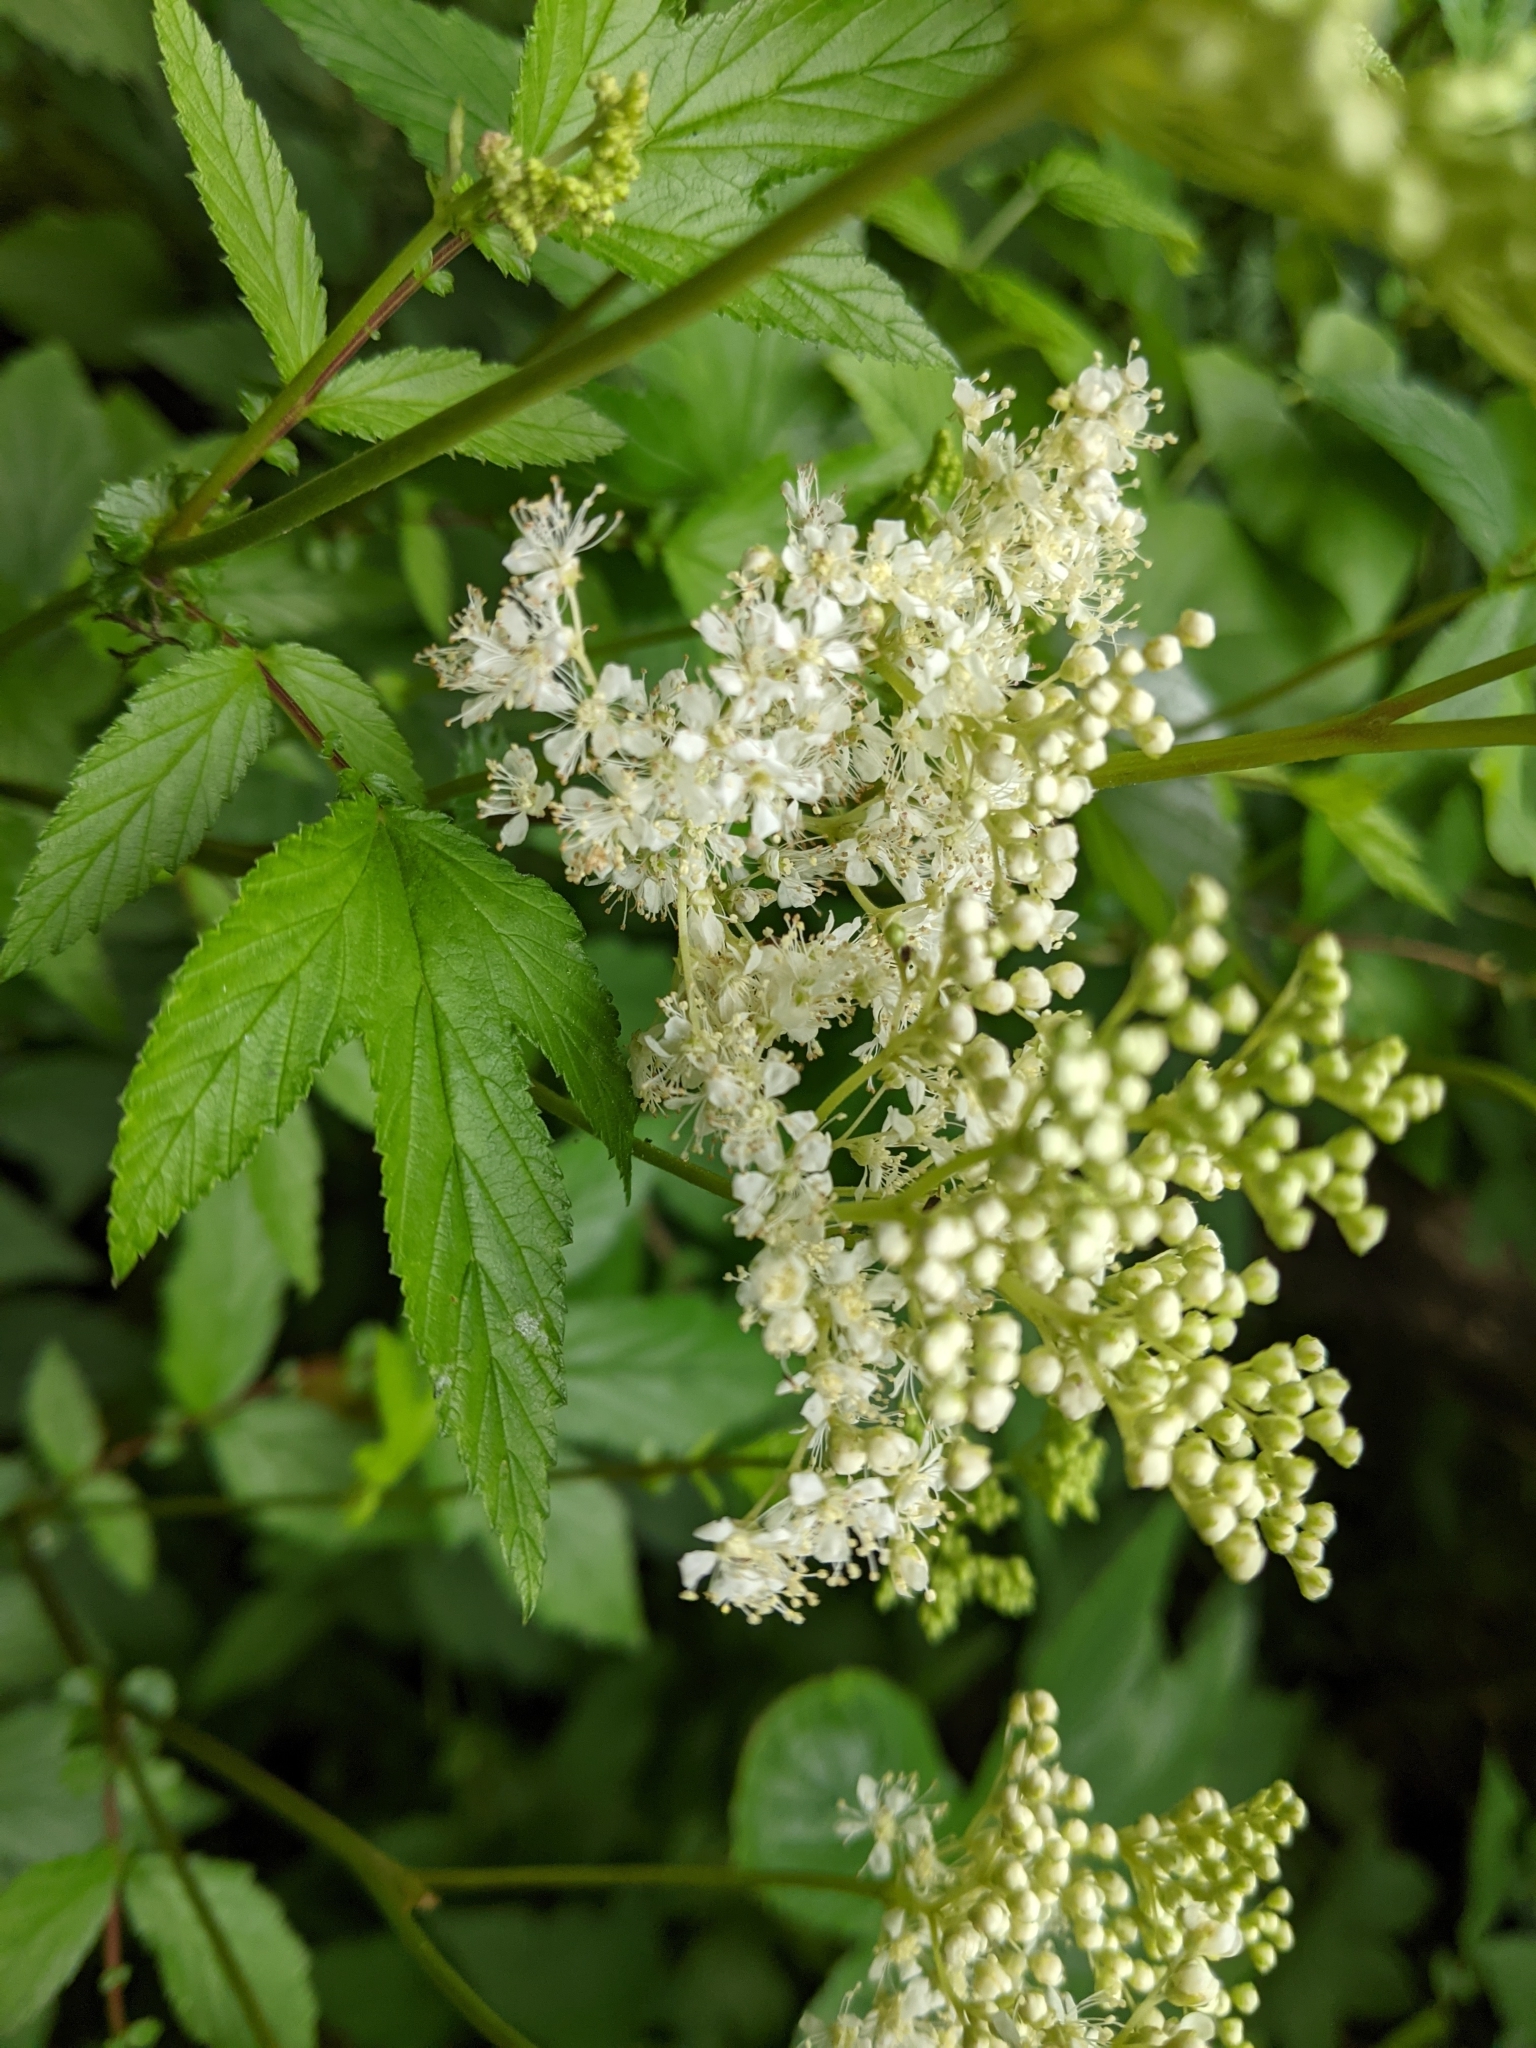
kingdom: Plantae
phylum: Tracheophyta
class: Magnoliopsida
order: Rosales
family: Rosaceae
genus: Filipendula
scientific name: Filipendula ulmaria
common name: Meadowsweet
